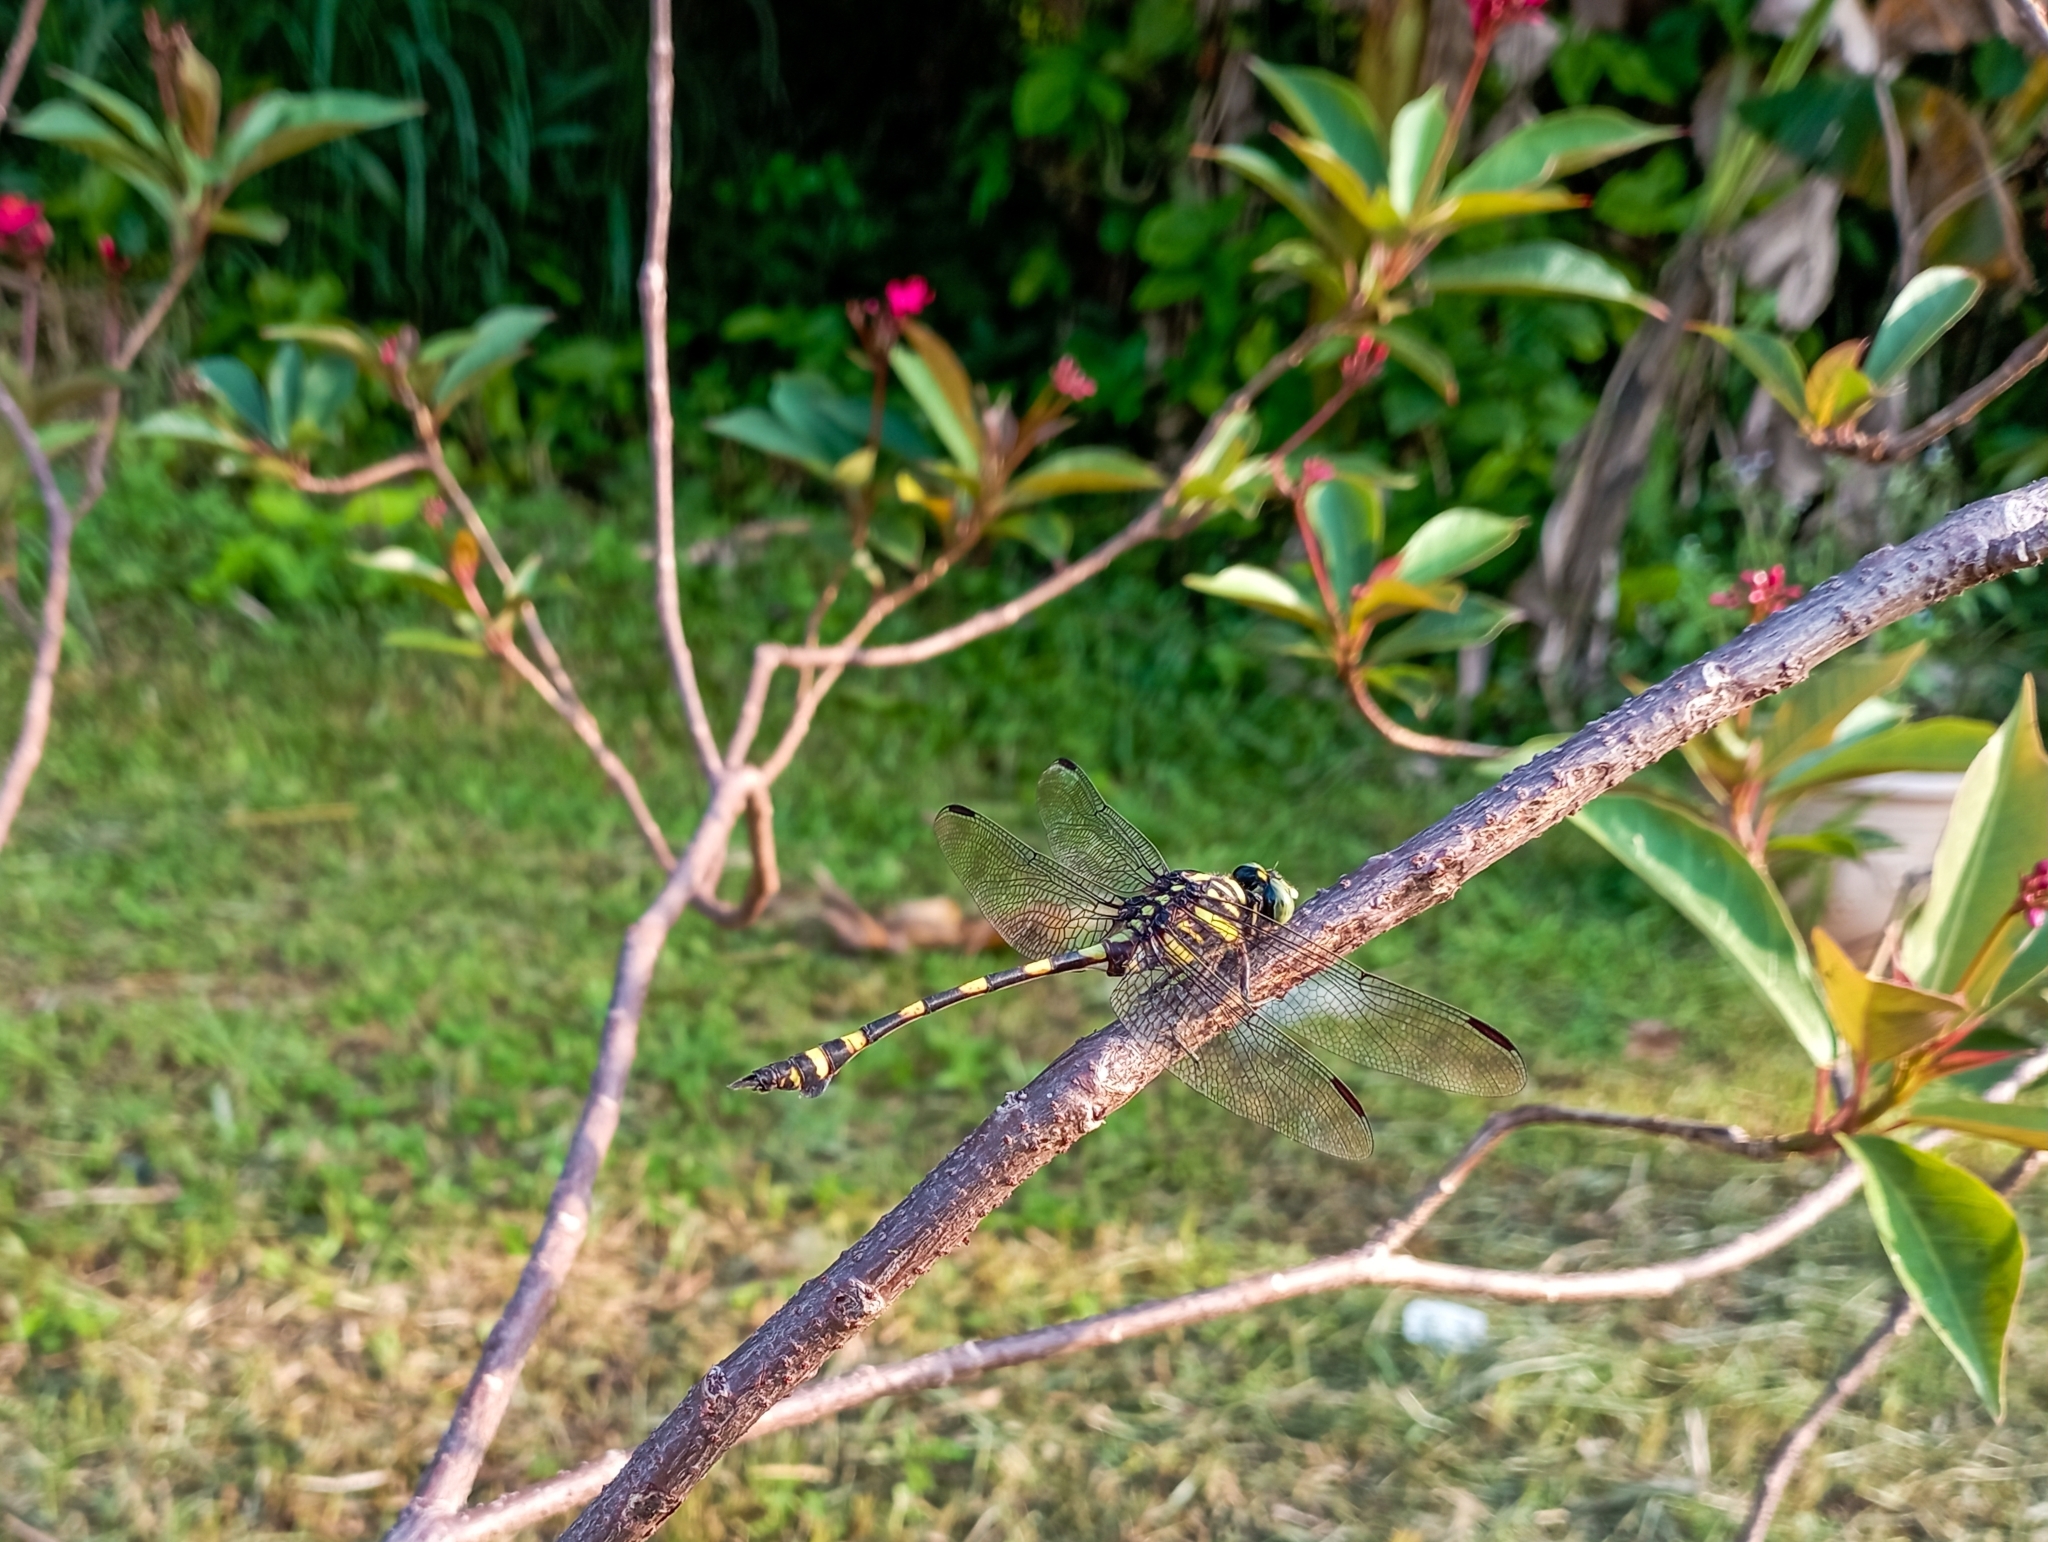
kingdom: Animalia
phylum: Arthropoda
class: Insecta
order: Odonata
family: Gomphidae
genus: Ictinogomphus
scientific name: Ictinogomphus decoratus
